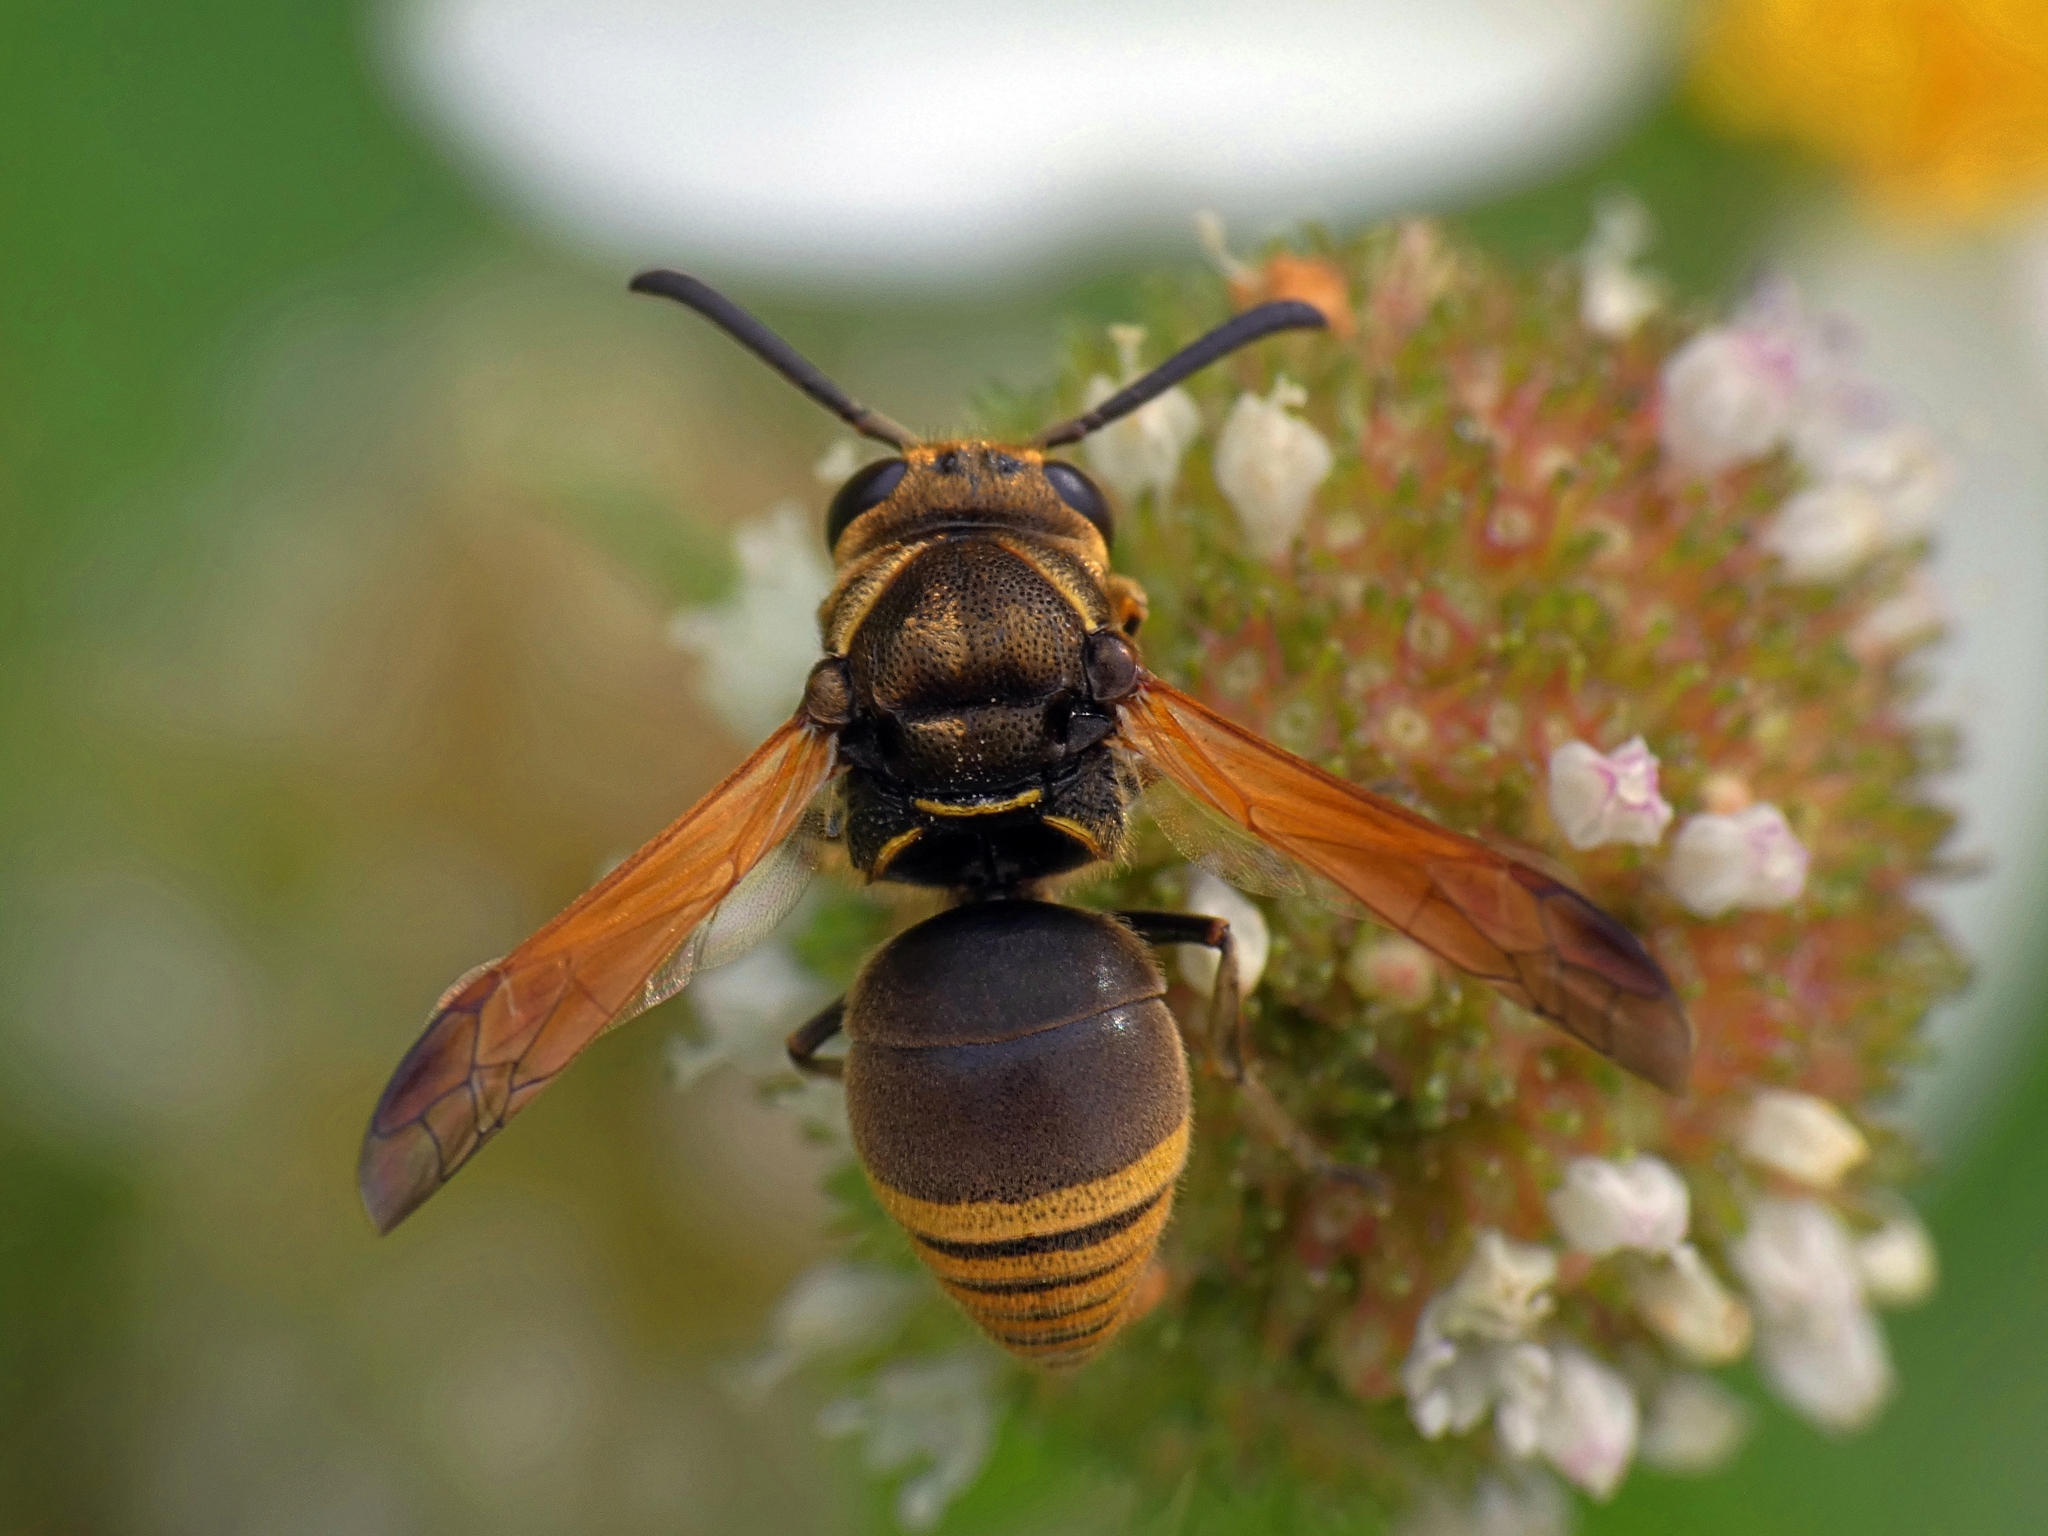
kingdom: Animalia
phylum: Arthropoda
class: Insecta
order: Hymenoptera
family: Eumenidae
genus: Pachodynerus
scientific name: Pachodynerus nasidens
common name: Key hole wasp
